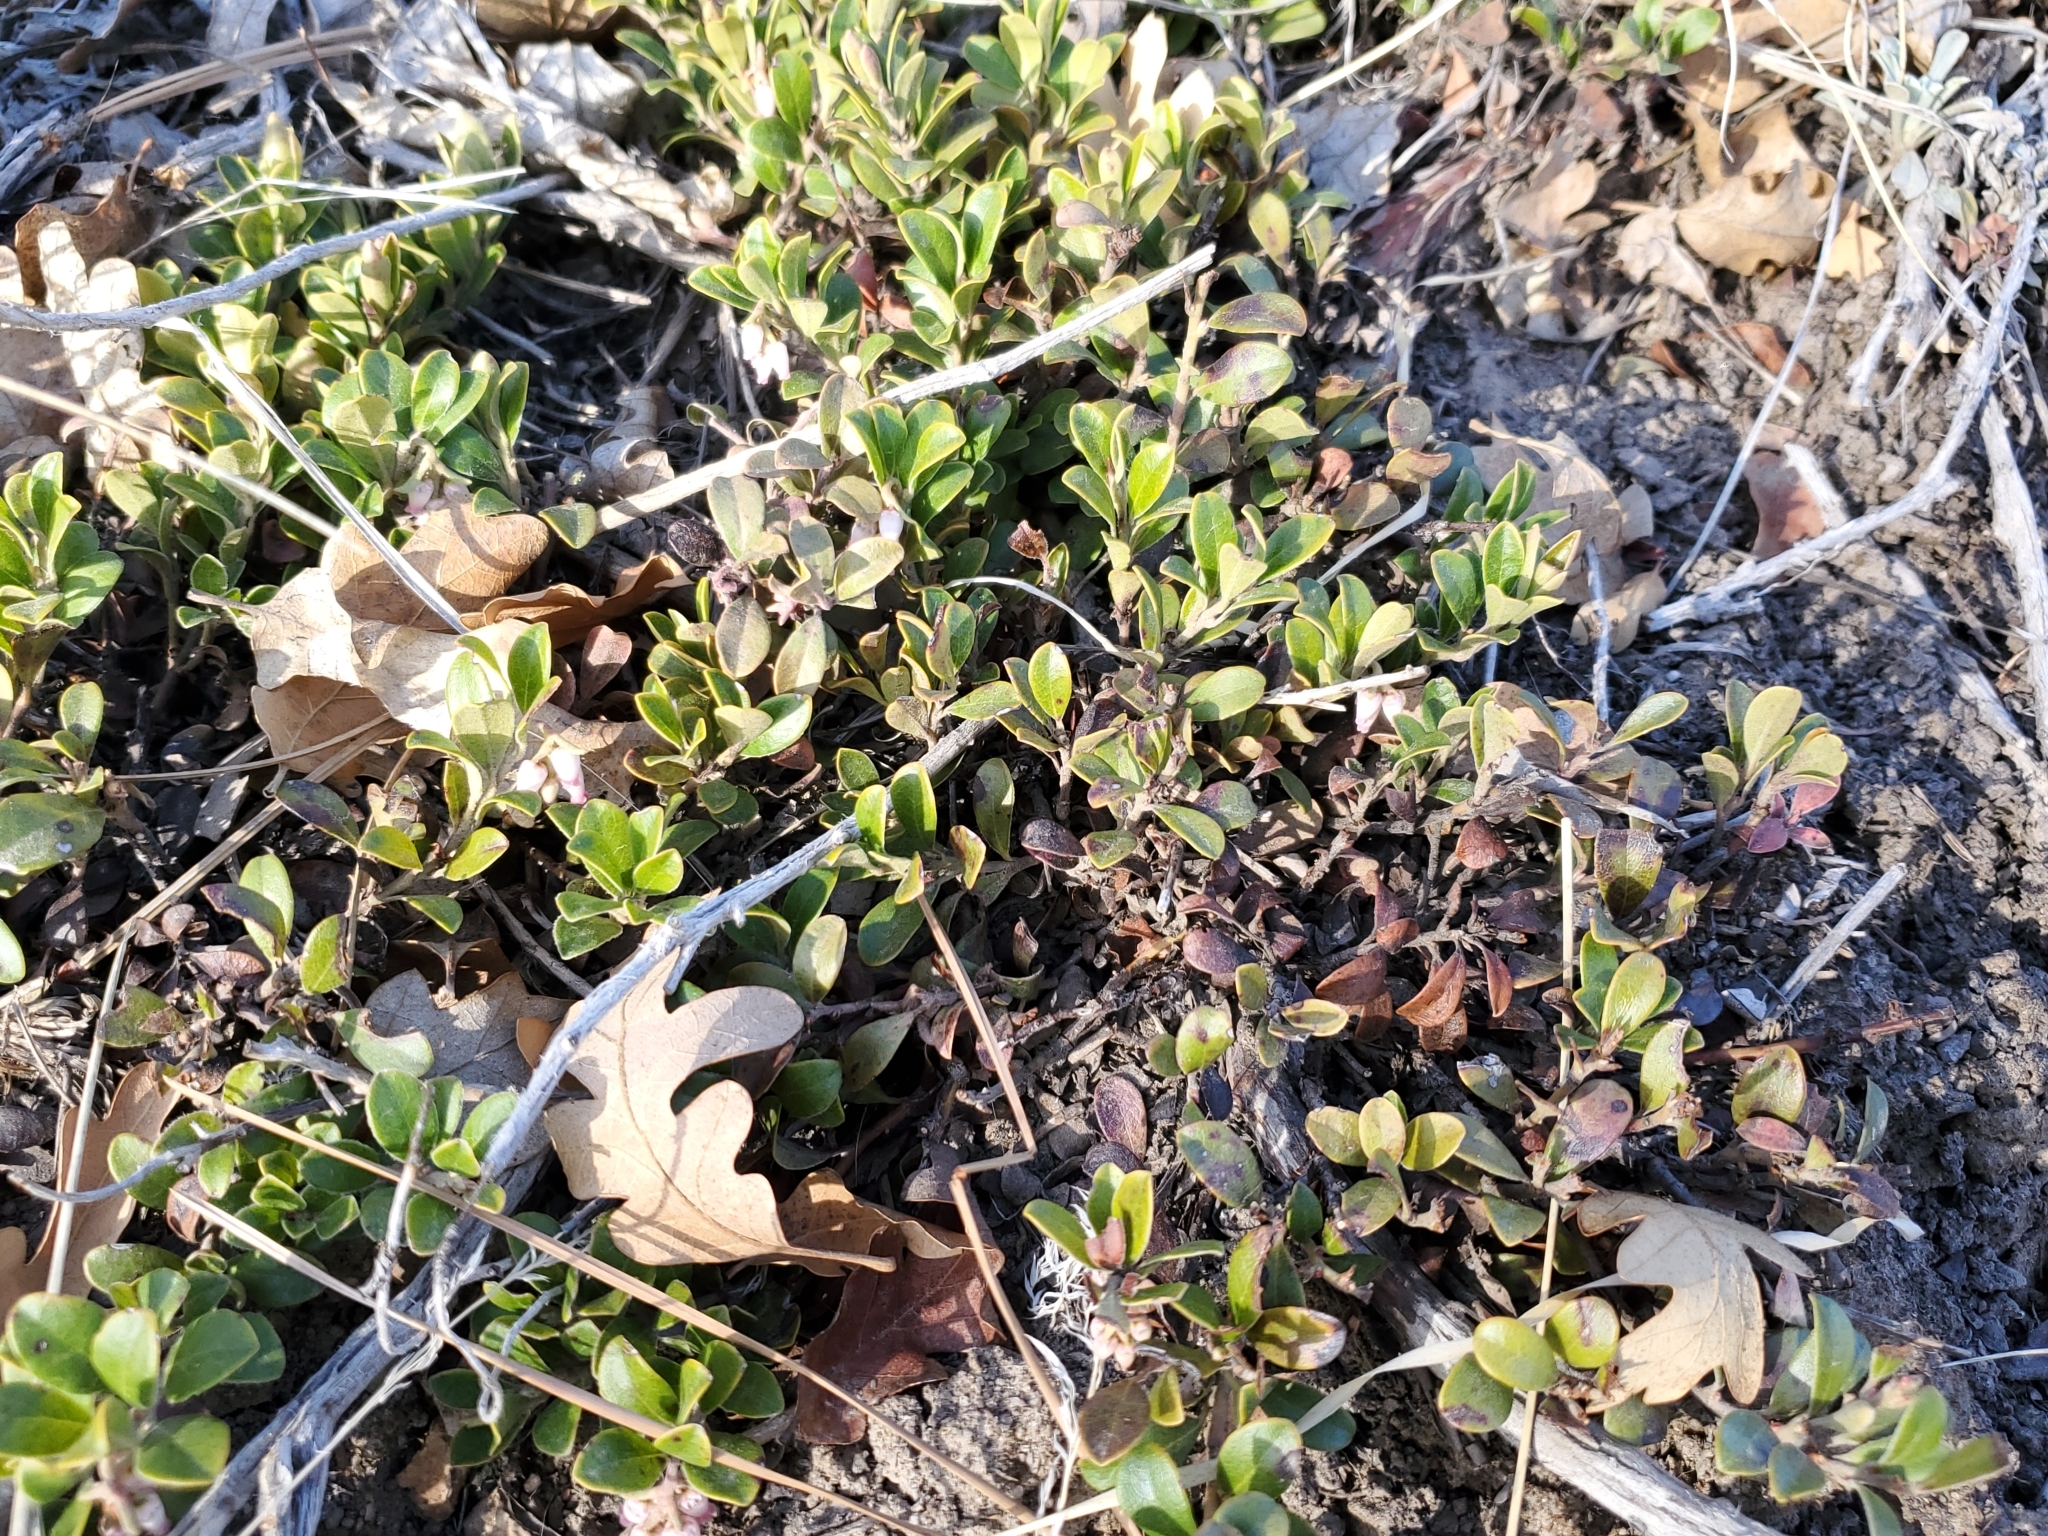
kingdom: Plantae
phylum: Tracheophyta
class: Magnoliopsida
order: Ericales
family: Ericaceae
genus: Arctostaphylos
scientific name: Arctostaphylos uva-ursi
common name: Bearberry
